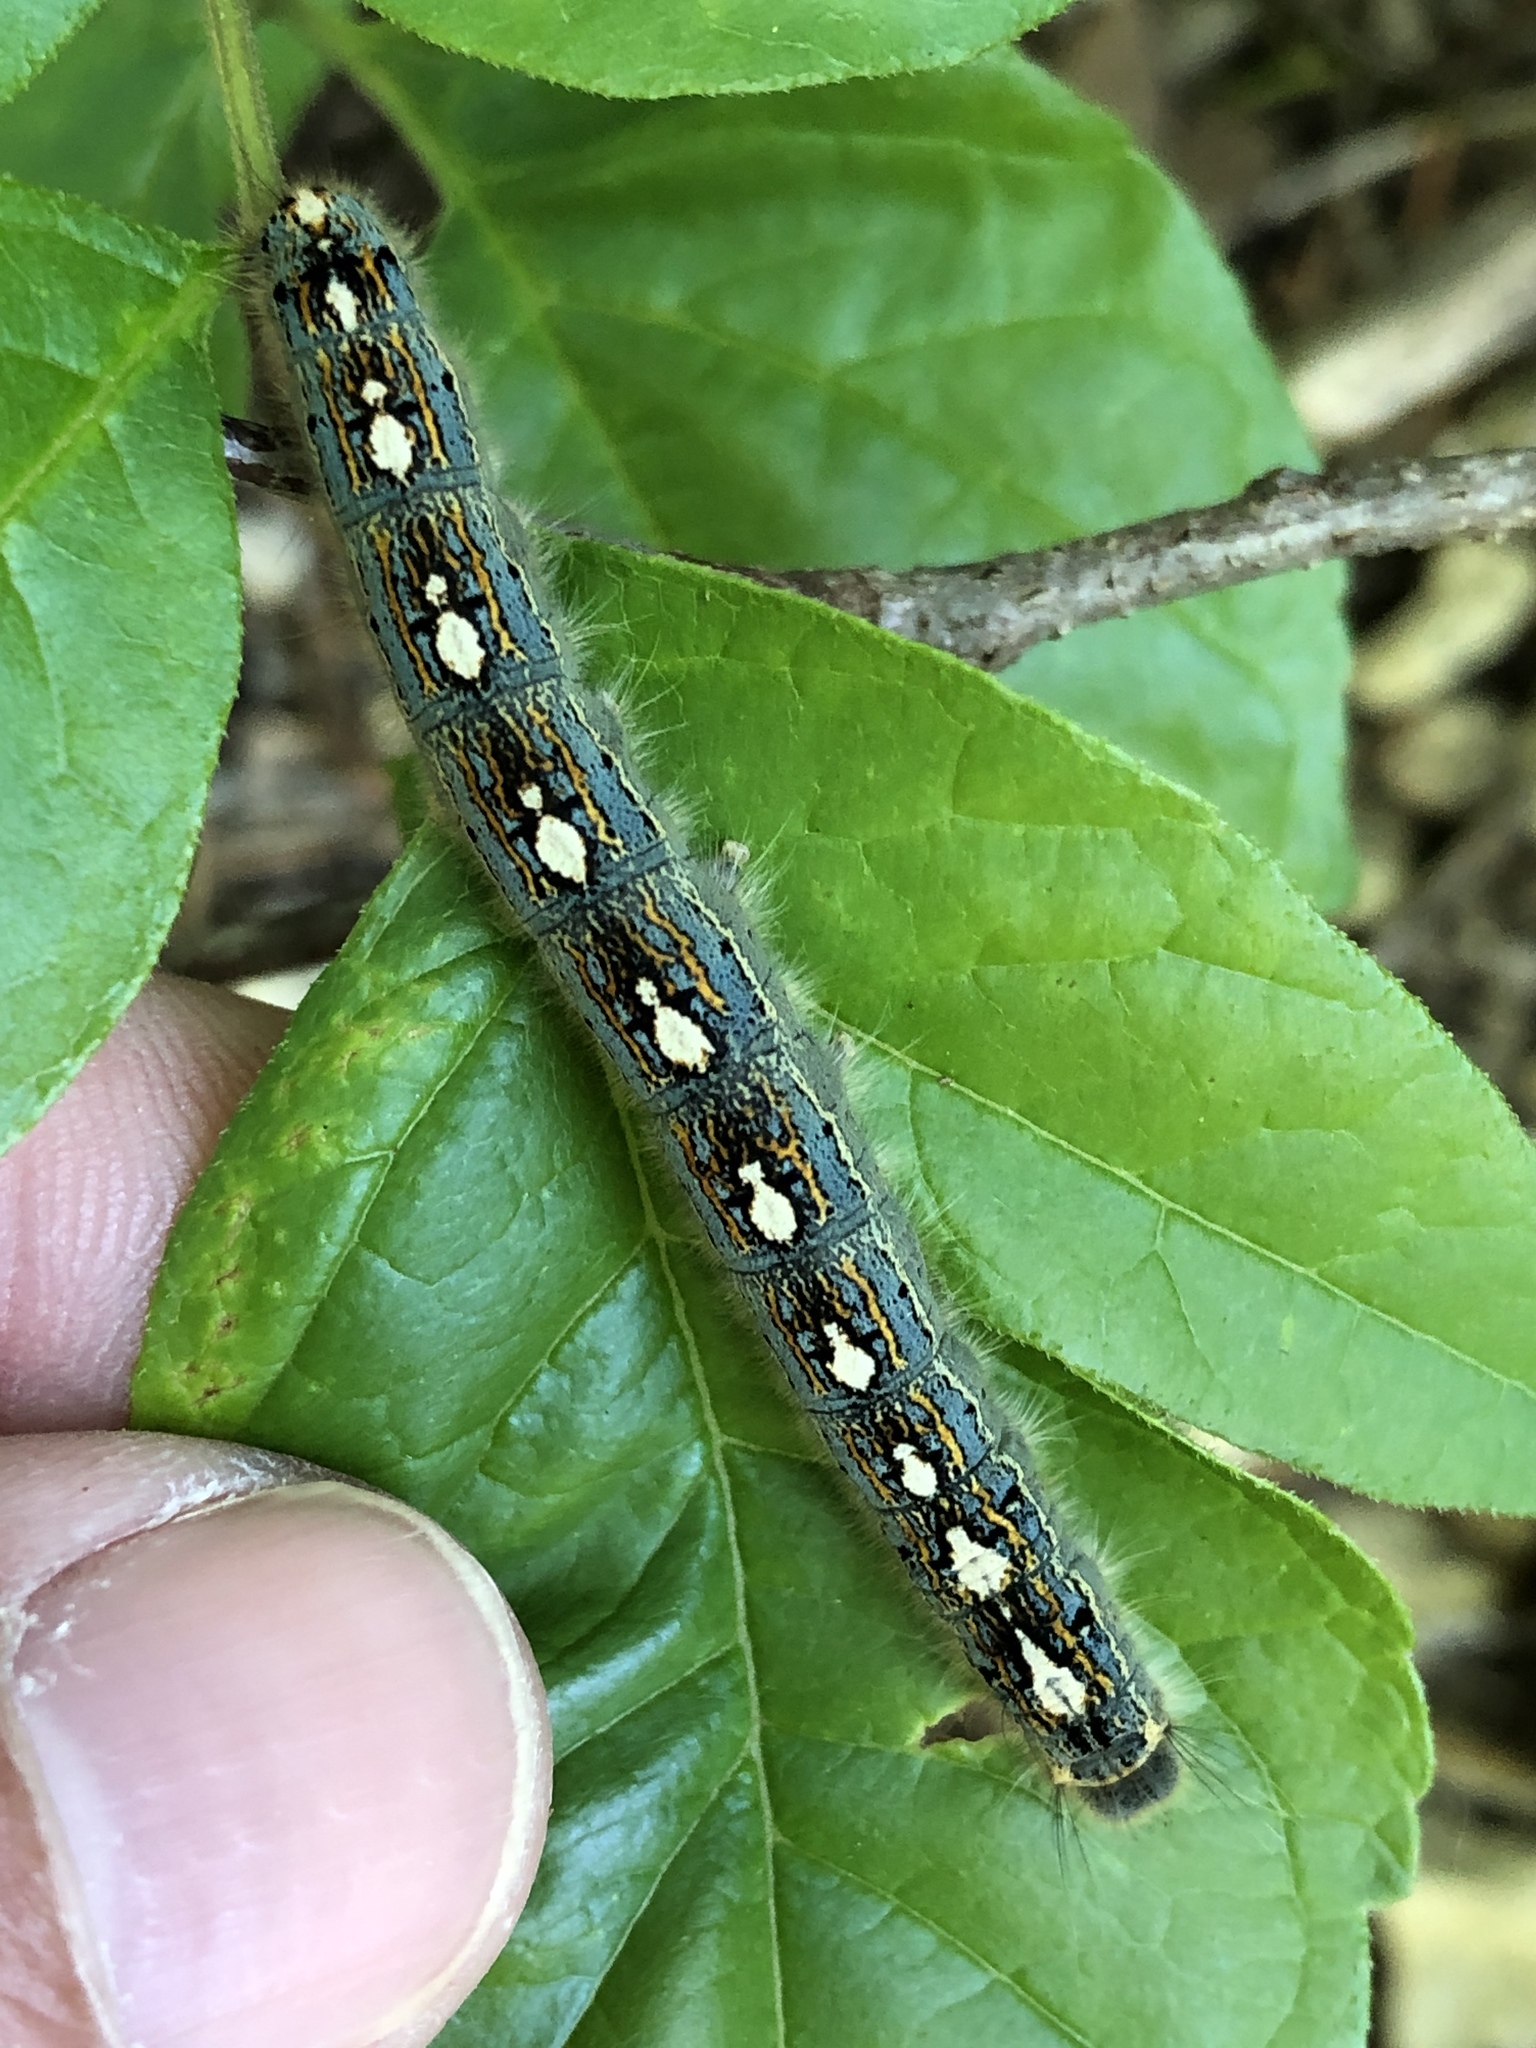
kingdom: Animalia
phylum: Arthropoda
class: Insecta
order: Lepidoptera
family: Lasiocampidae
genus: Malacosoma
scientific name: Malacosoma disstria
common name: Forest tent caterpillar
